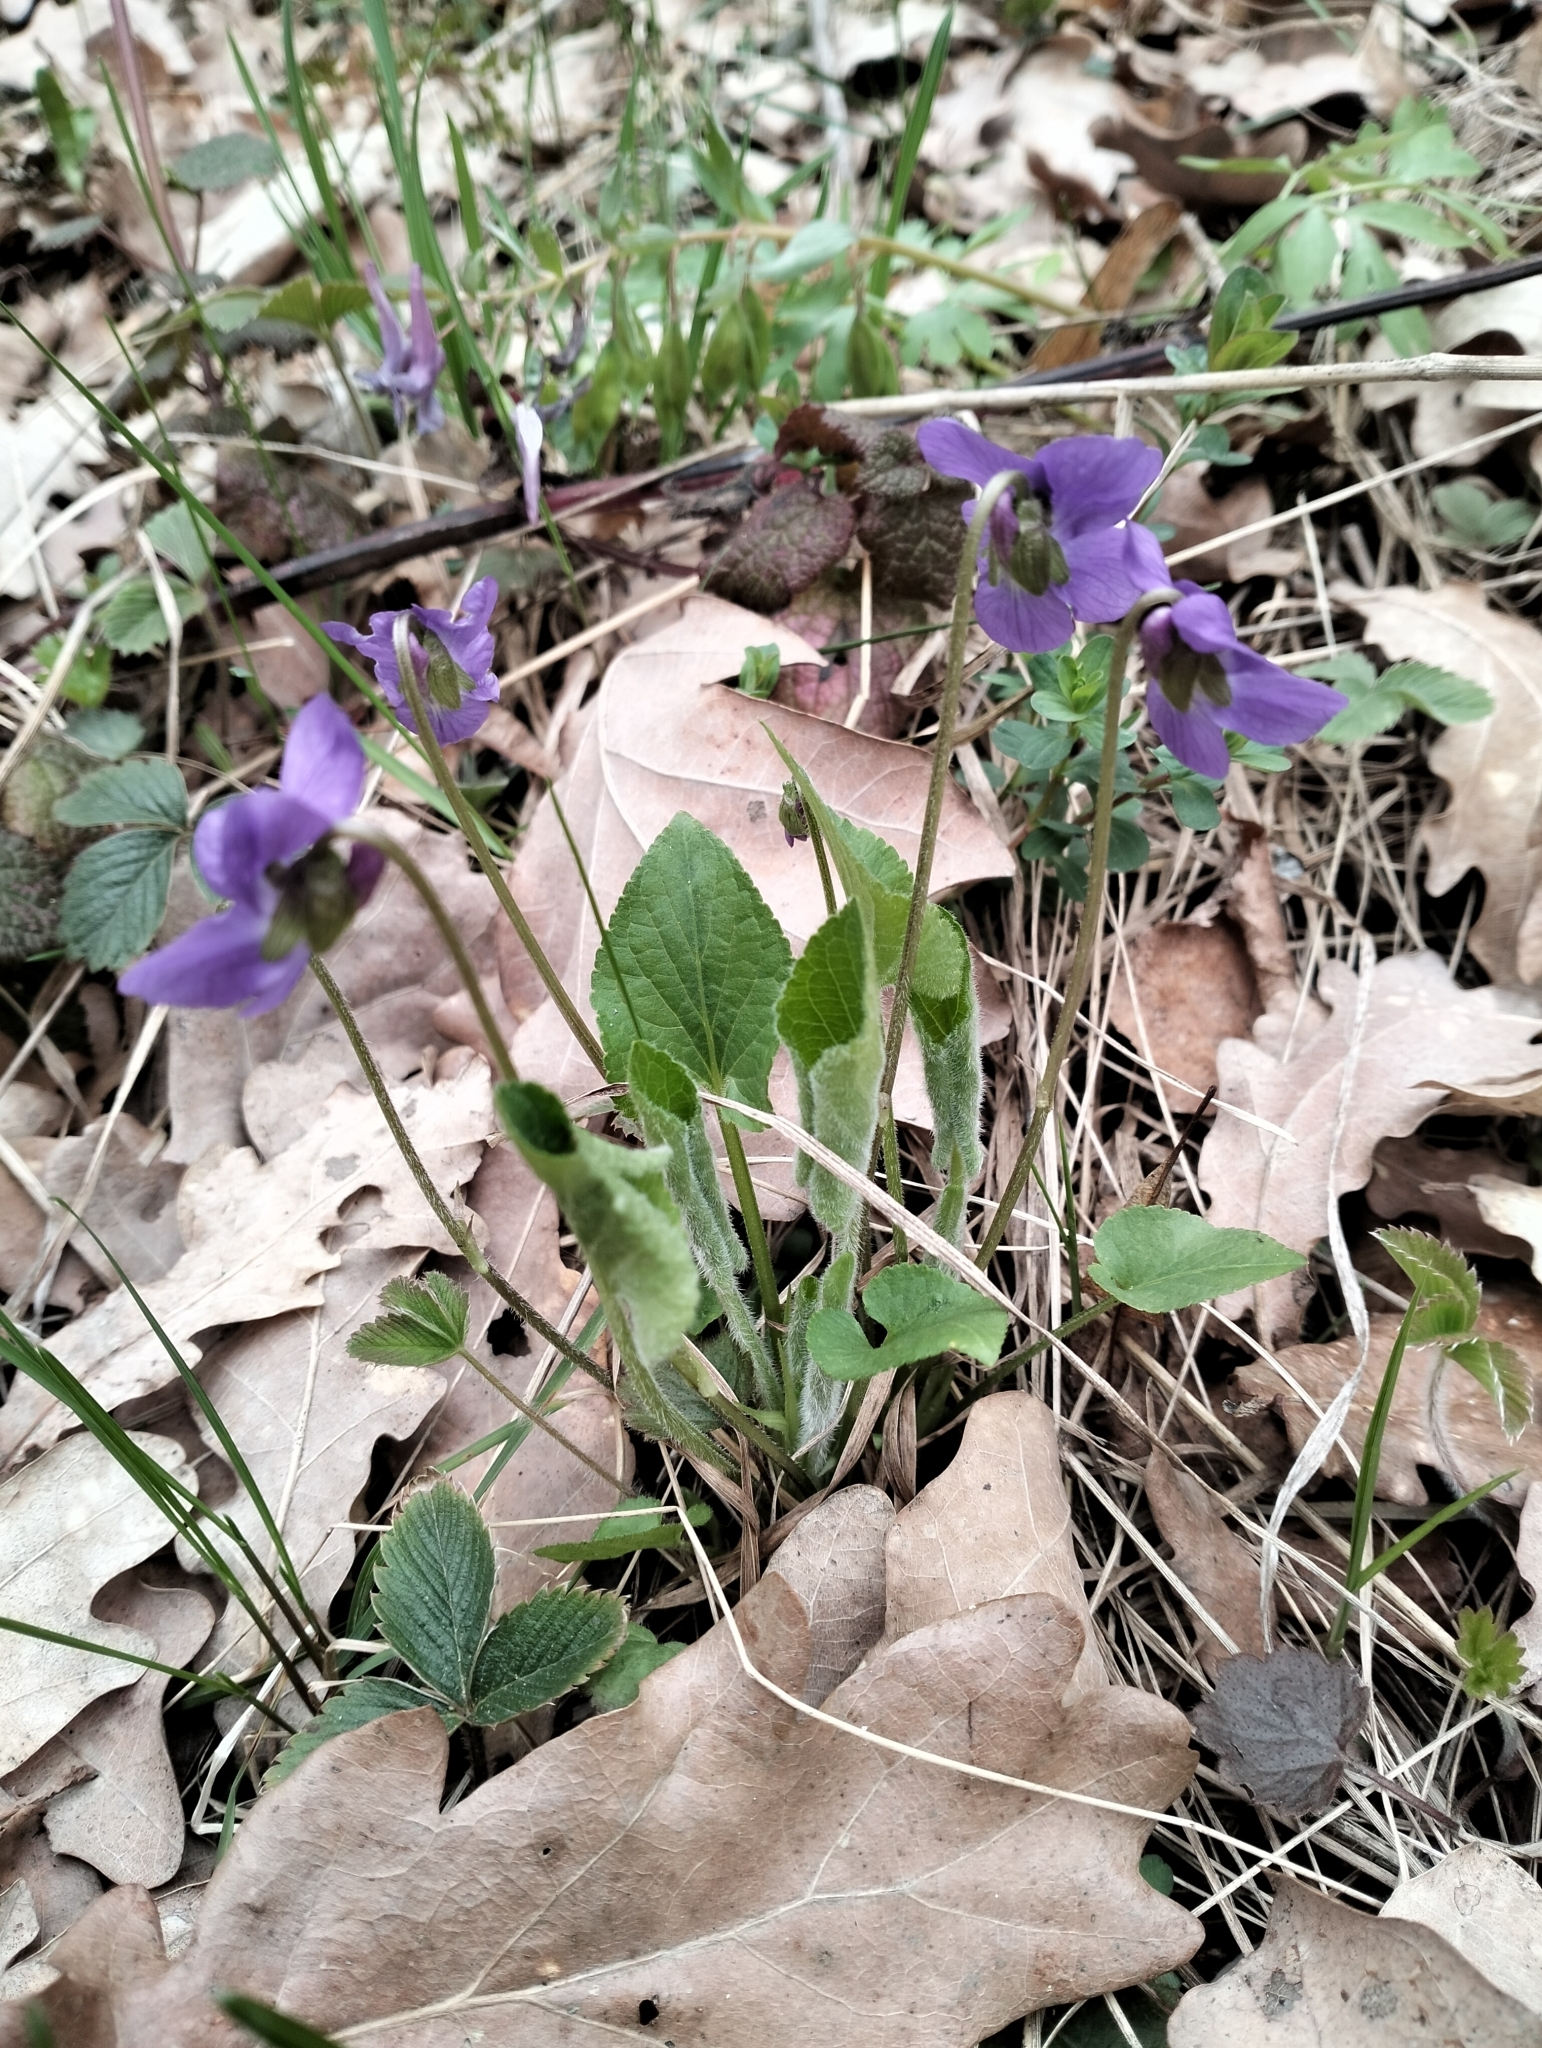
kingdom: Plantae
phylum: Tracheophyta
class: Magnoliopsida
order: Malpighiales
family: Violaceae
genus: Viola
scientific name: Viola hirta
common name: Hairy violet
